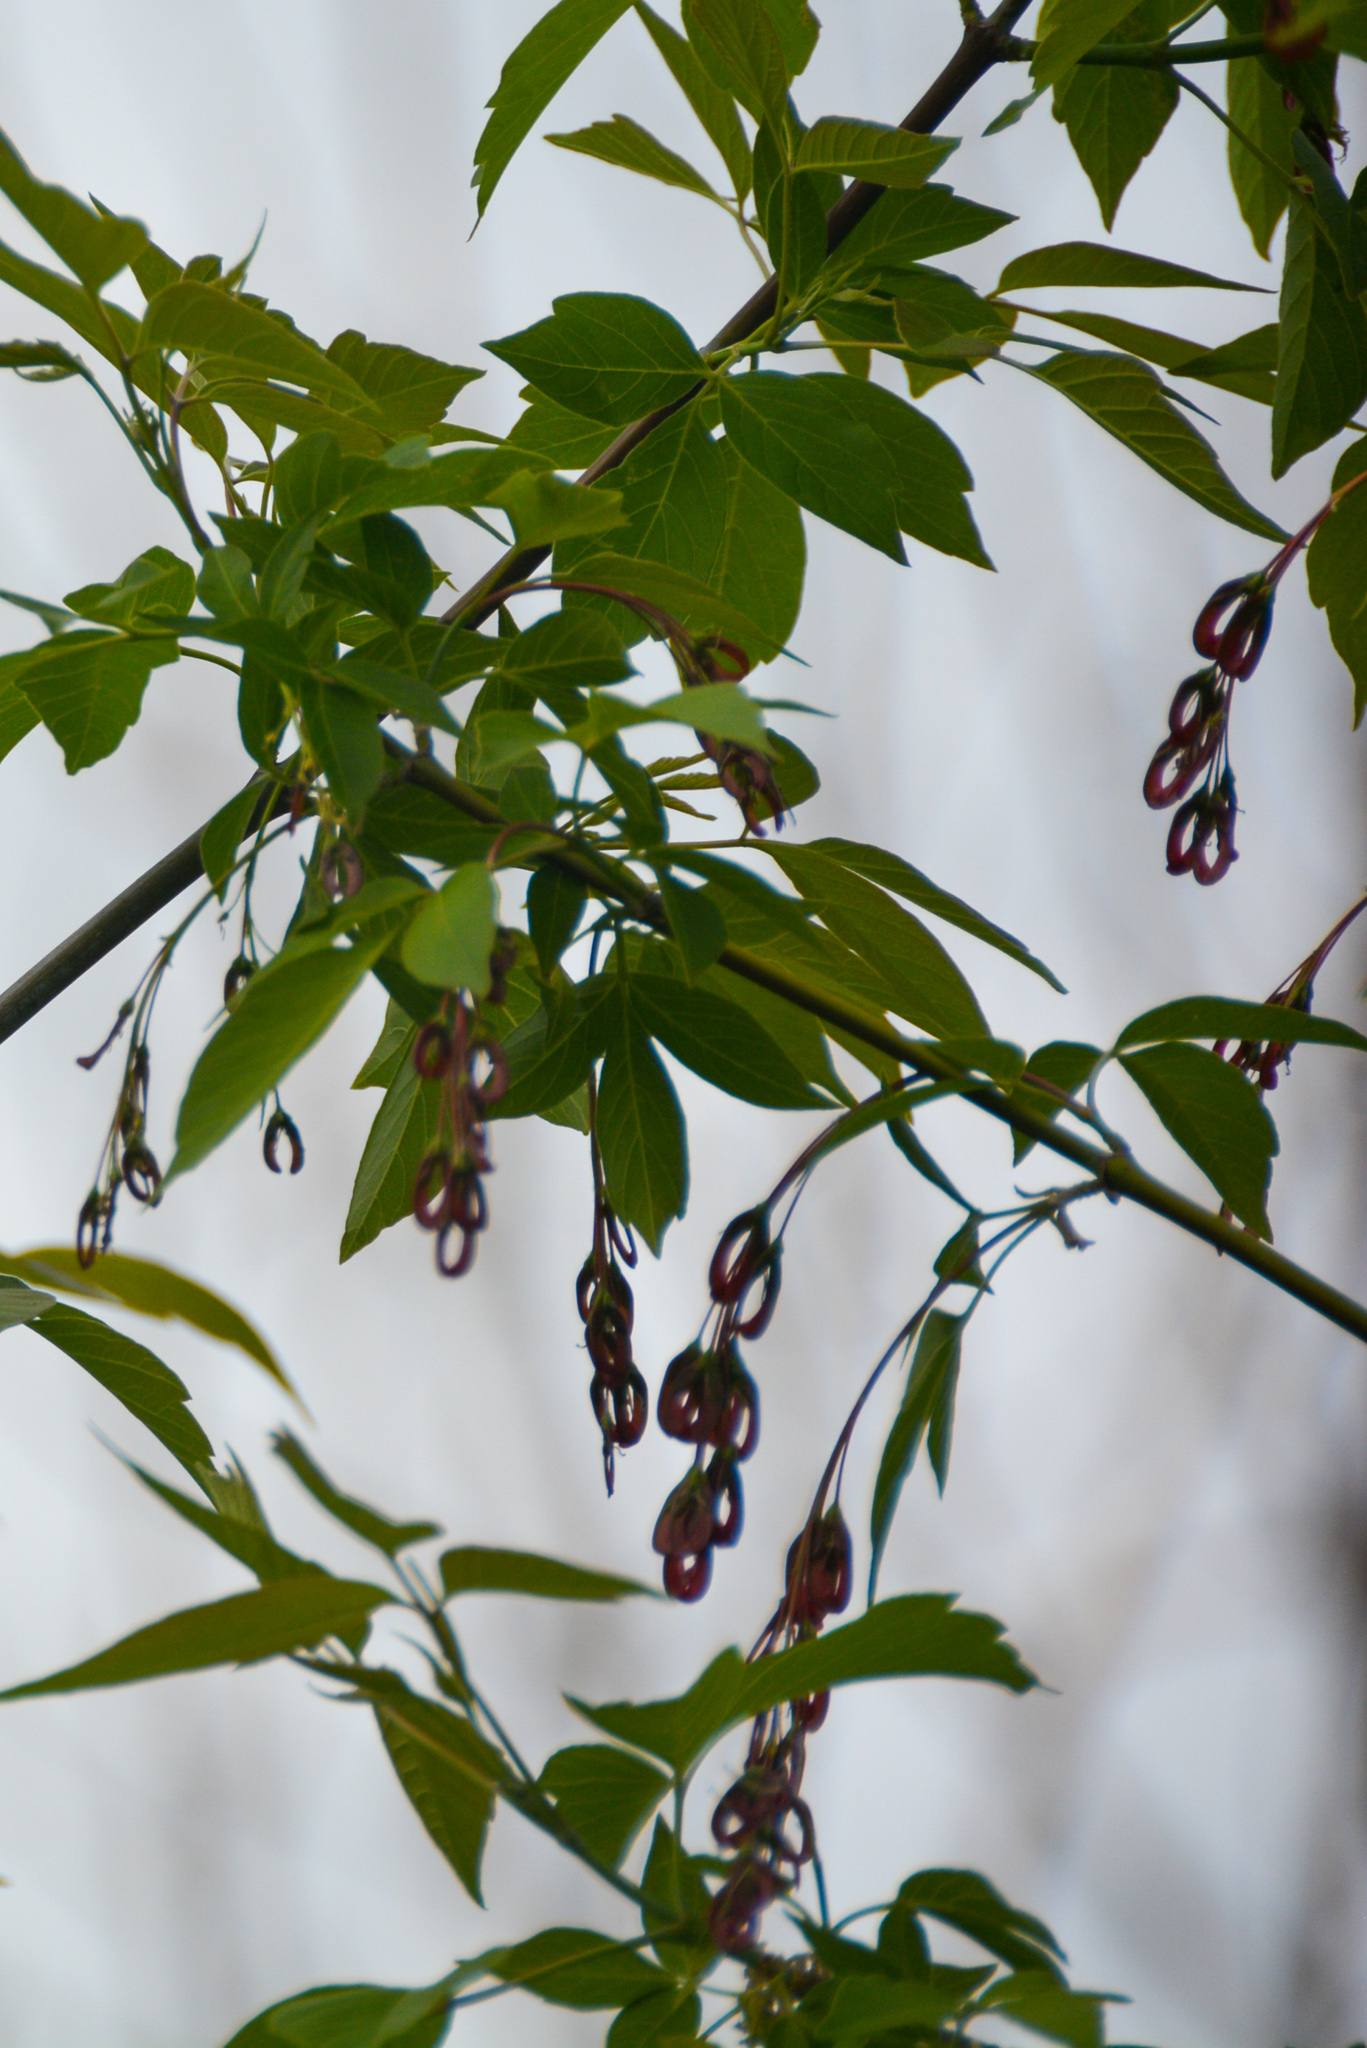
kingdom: Plantae
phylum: Tracheophyta
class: Magnoliopsida
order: Sapindales
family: Sapindaceae
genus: Acer
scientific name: Acer negundo
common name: Ashleaf maple
